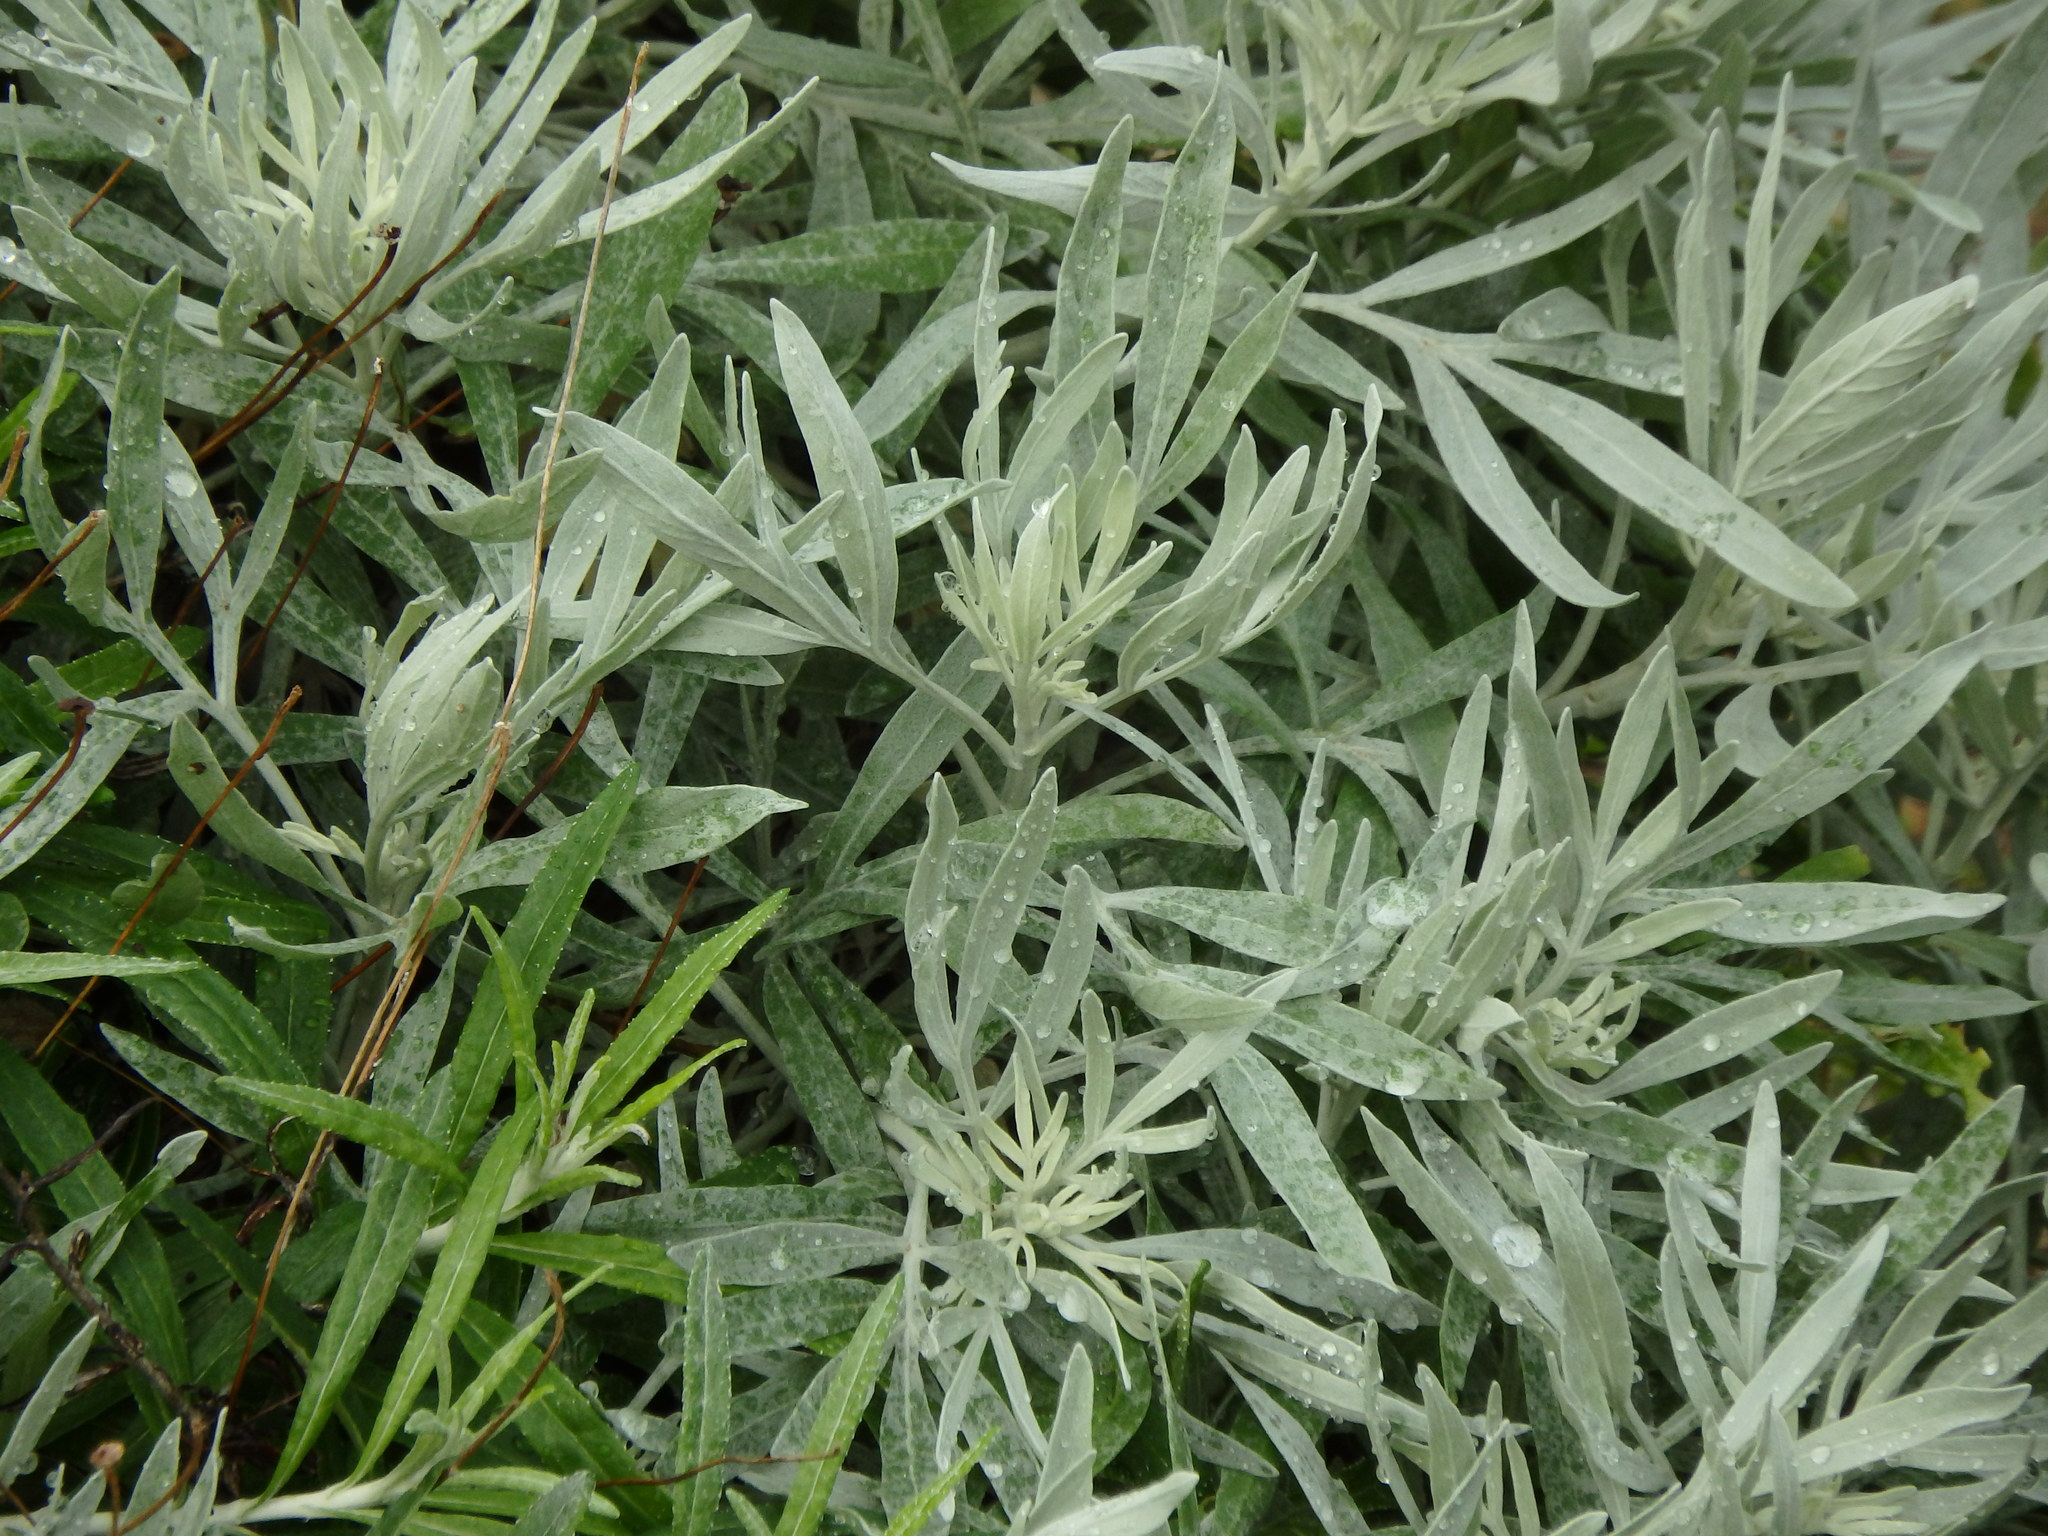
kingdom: Plantae
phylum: Tracheophyta
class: Magnoliopsida
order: Asterales
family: Asteraceae
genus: Artemisia
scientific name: Artemisia argentea
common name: Madeira wormwood
